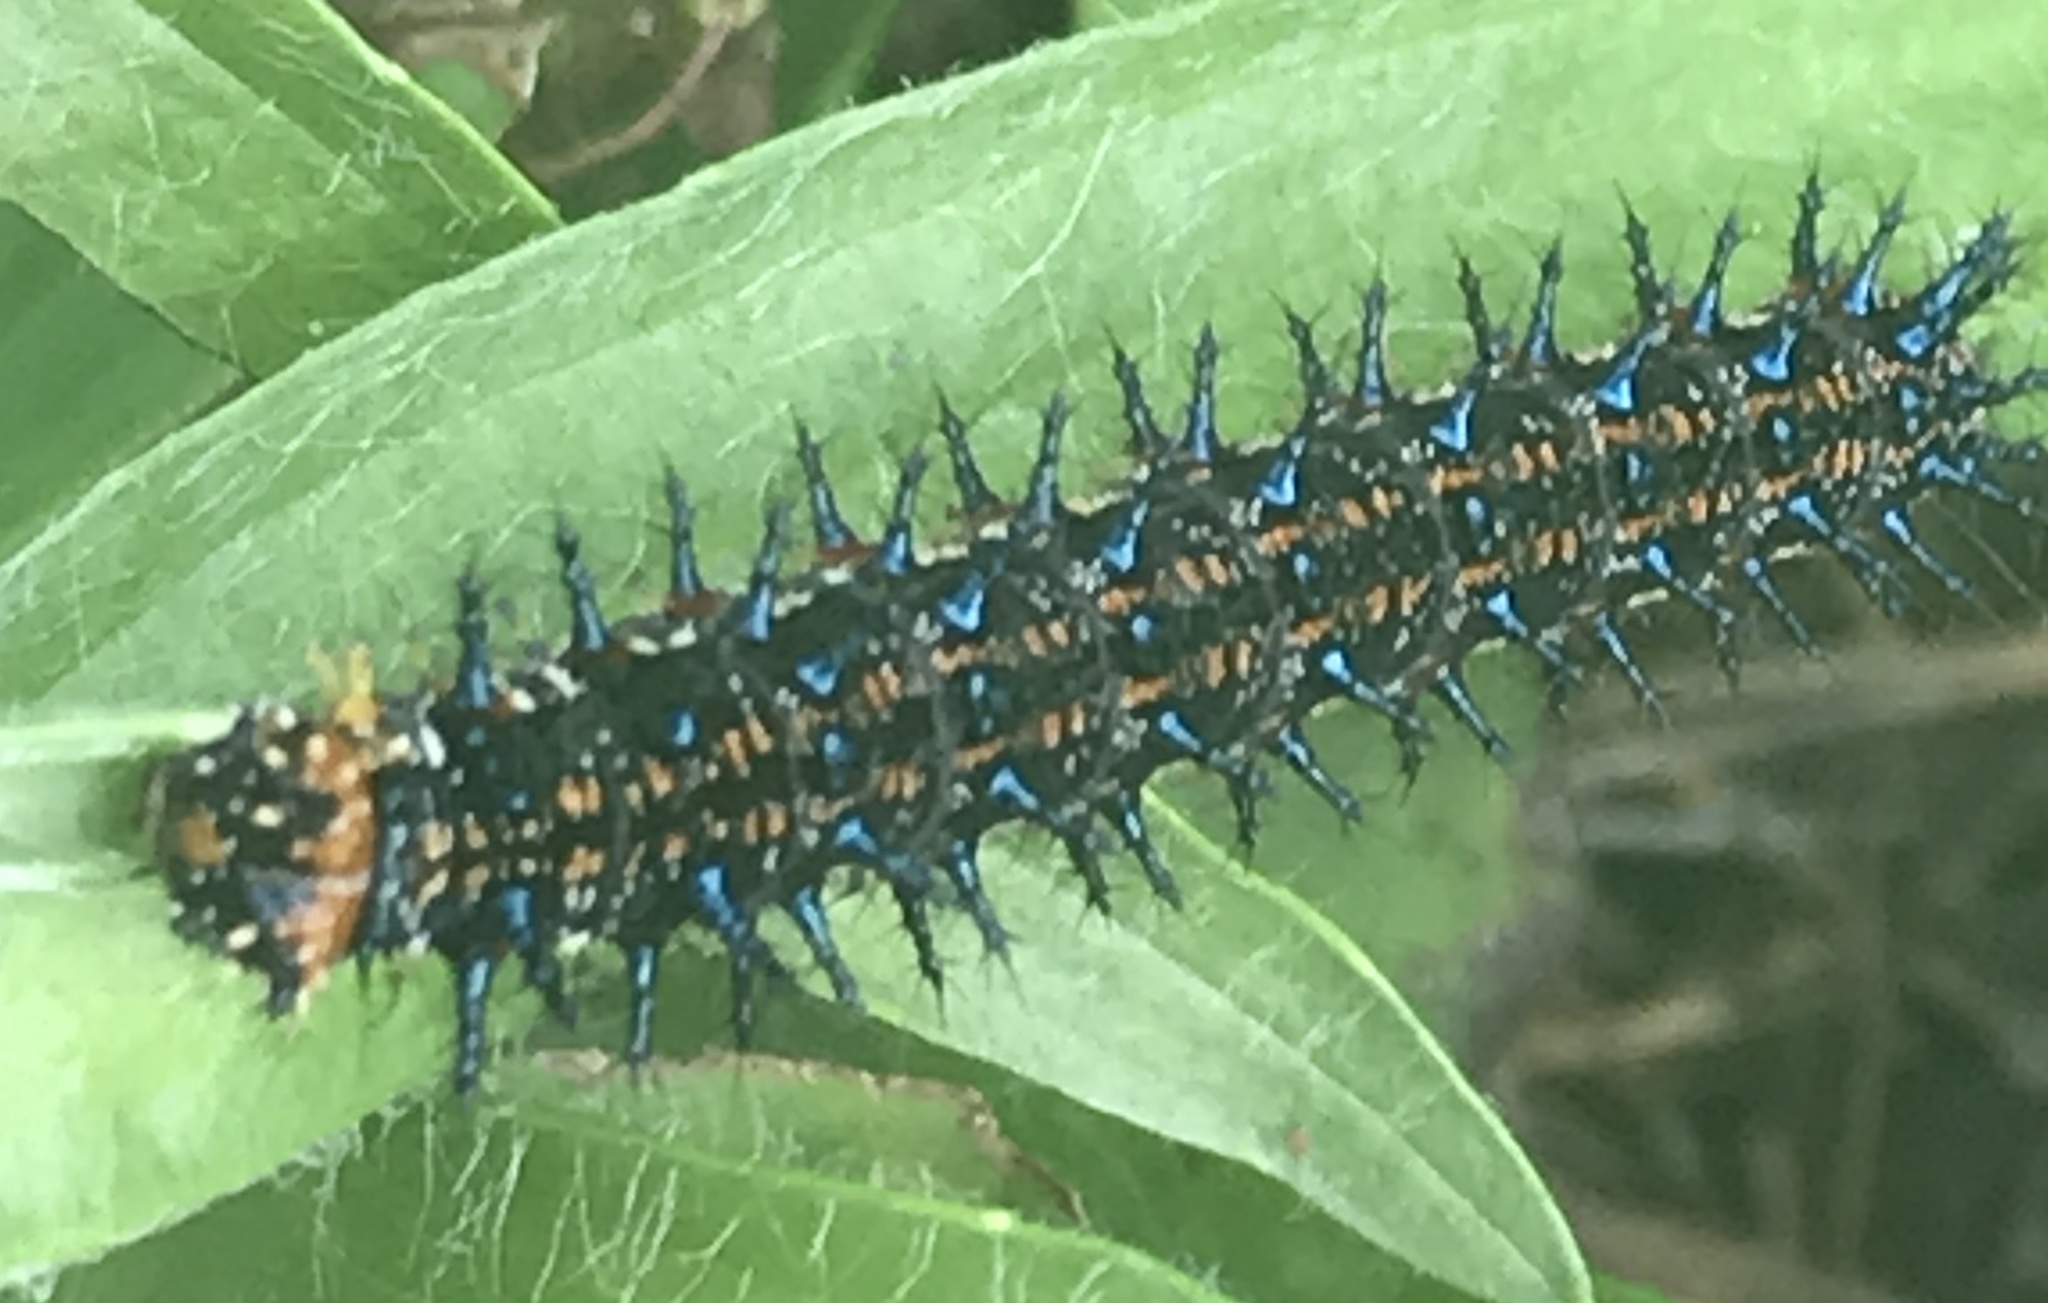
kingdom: Animalia
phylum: Arthropoda
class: Insecta
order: Lepidoptera
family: Nymphalidae
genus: Junonia
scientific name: Junonia coenia
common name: Common buckeye
